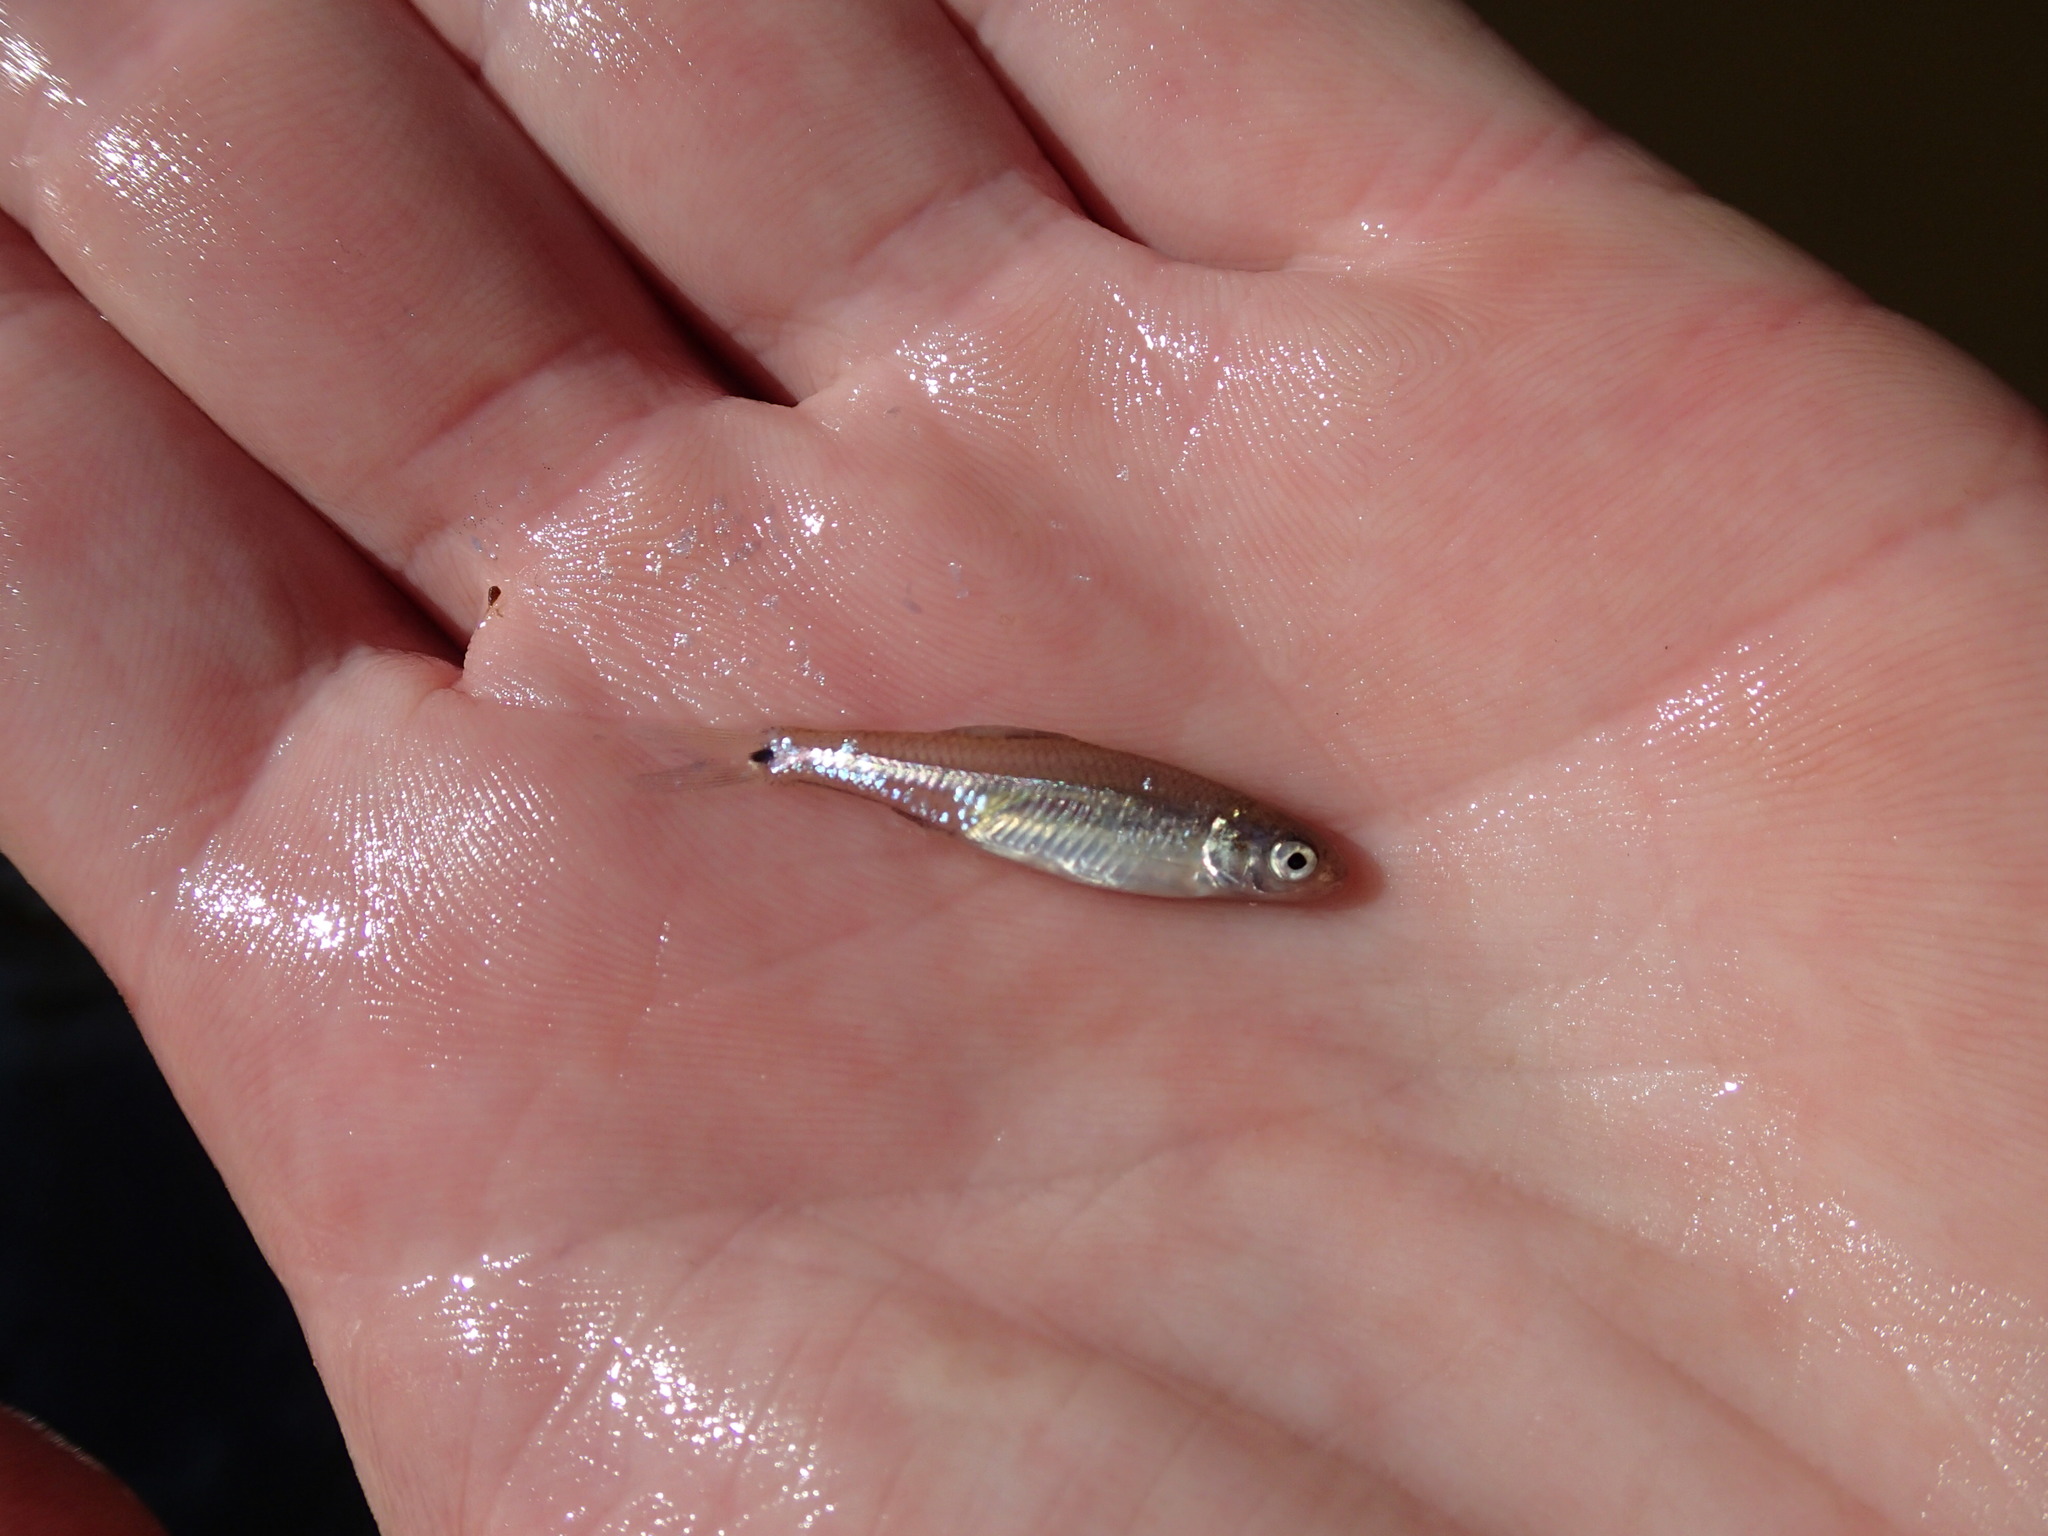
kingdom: Animalia
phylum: Chordata
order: Cypriniformes
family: Cyprinidae
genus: Notropis
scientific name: Notropis
